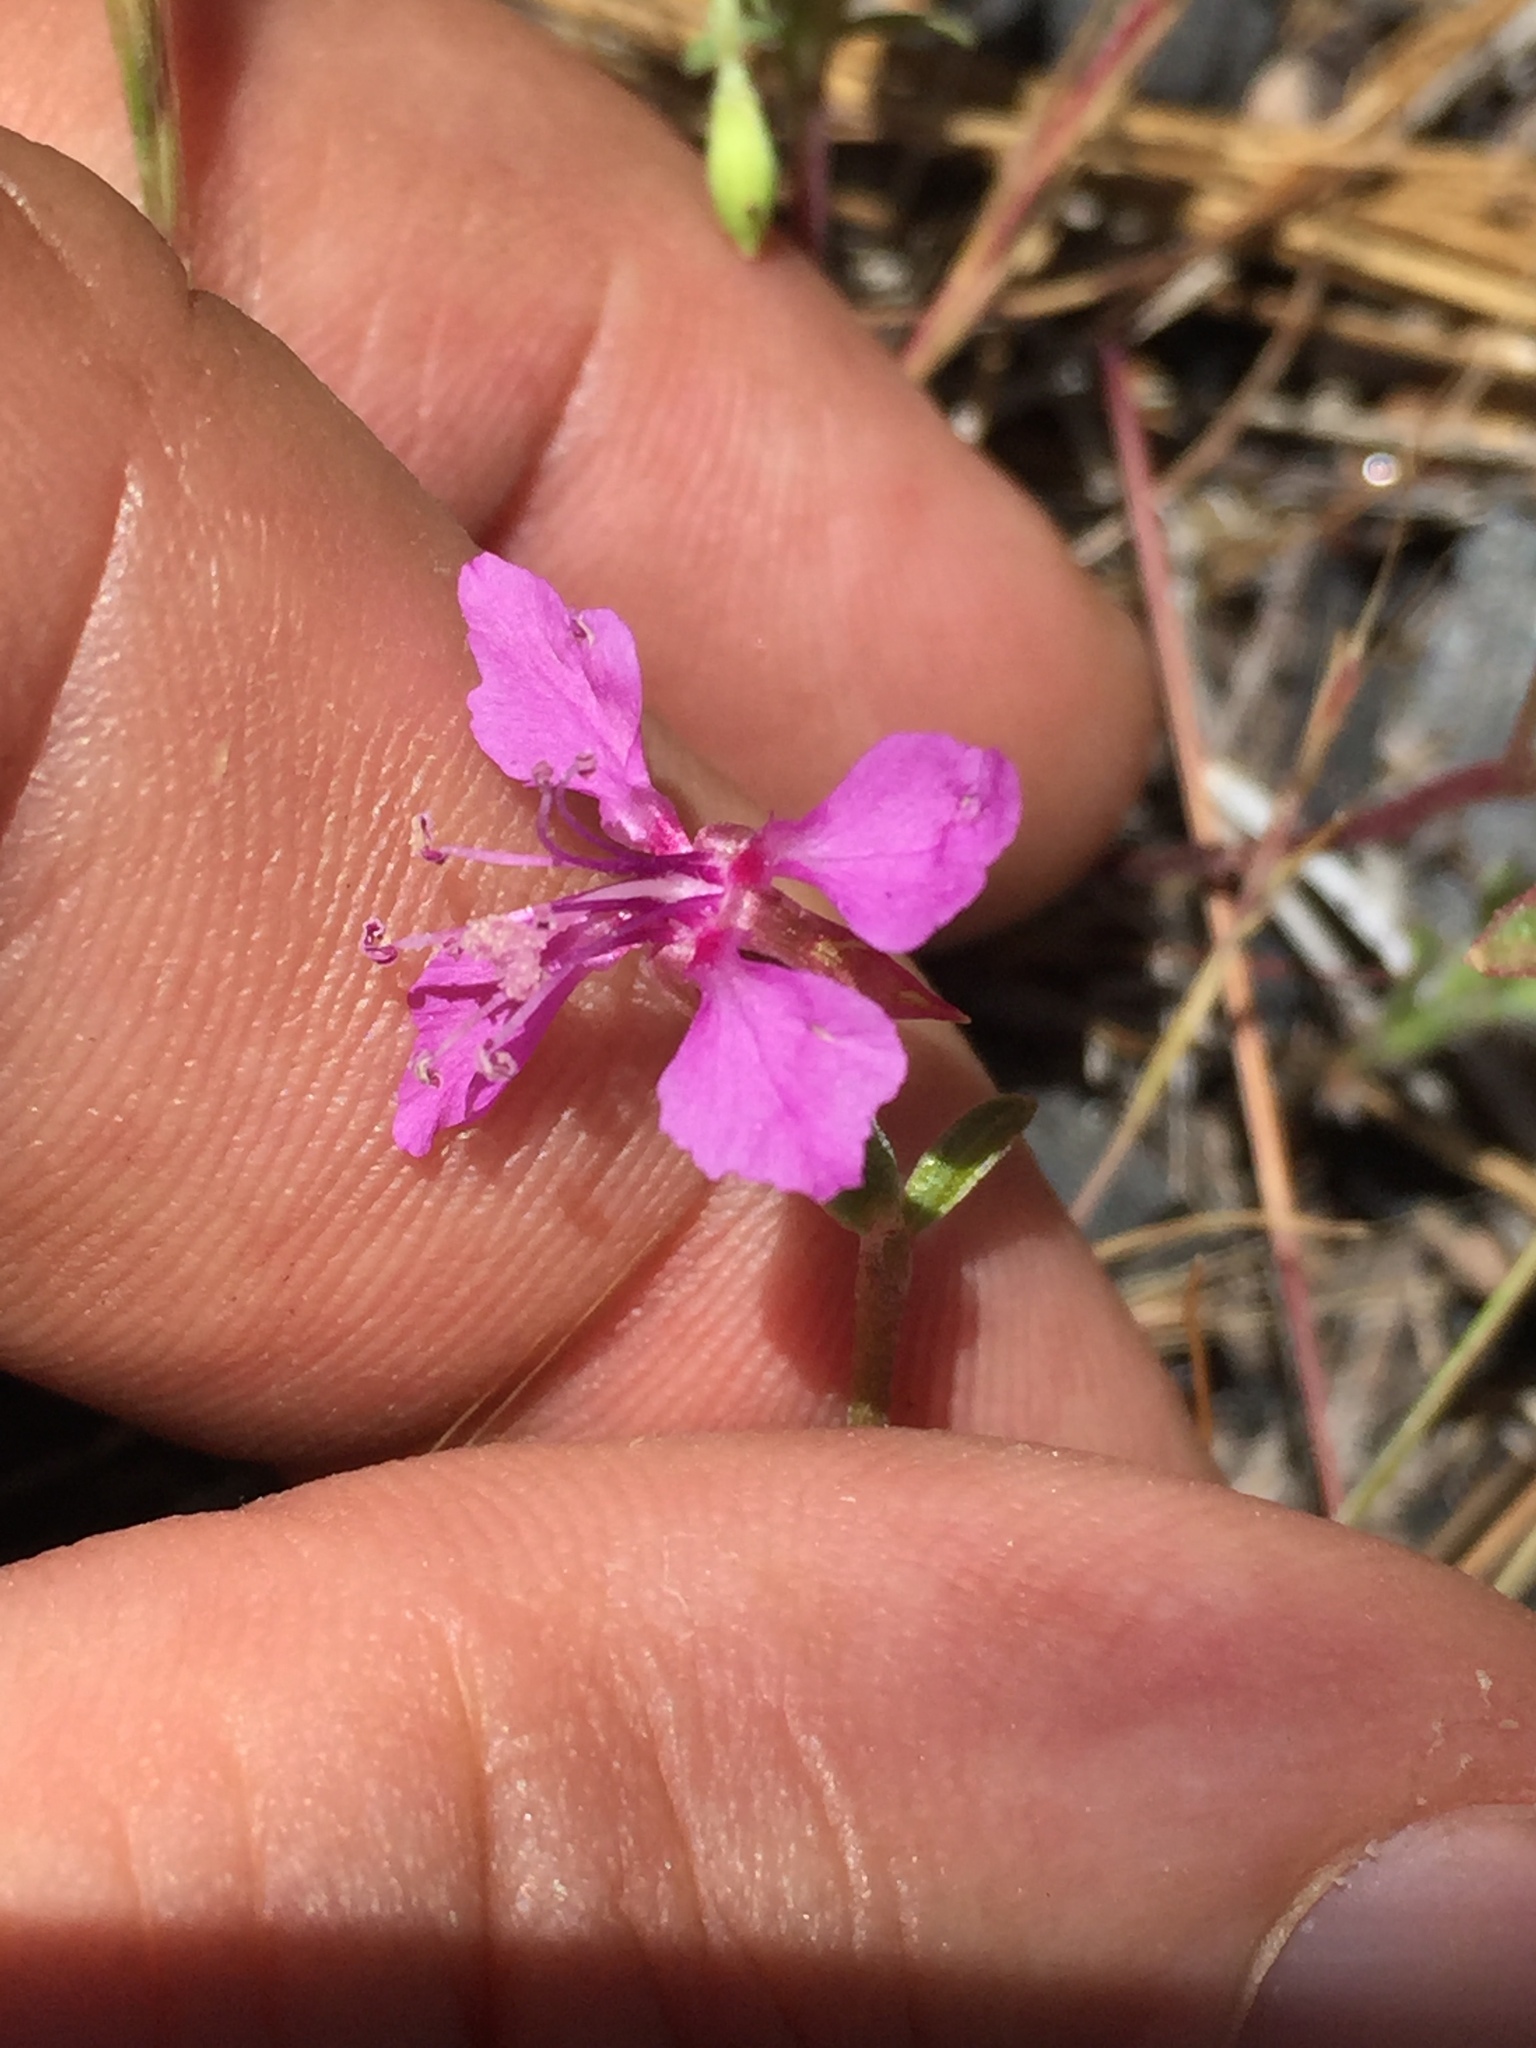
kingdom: Plantae
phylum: Tracheophyta
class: Magnoliopsida
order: Myrtales
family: Onagraceae
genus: Clarkia
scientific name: Clarkia rhomboidea
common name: Broadleaf clarkia
